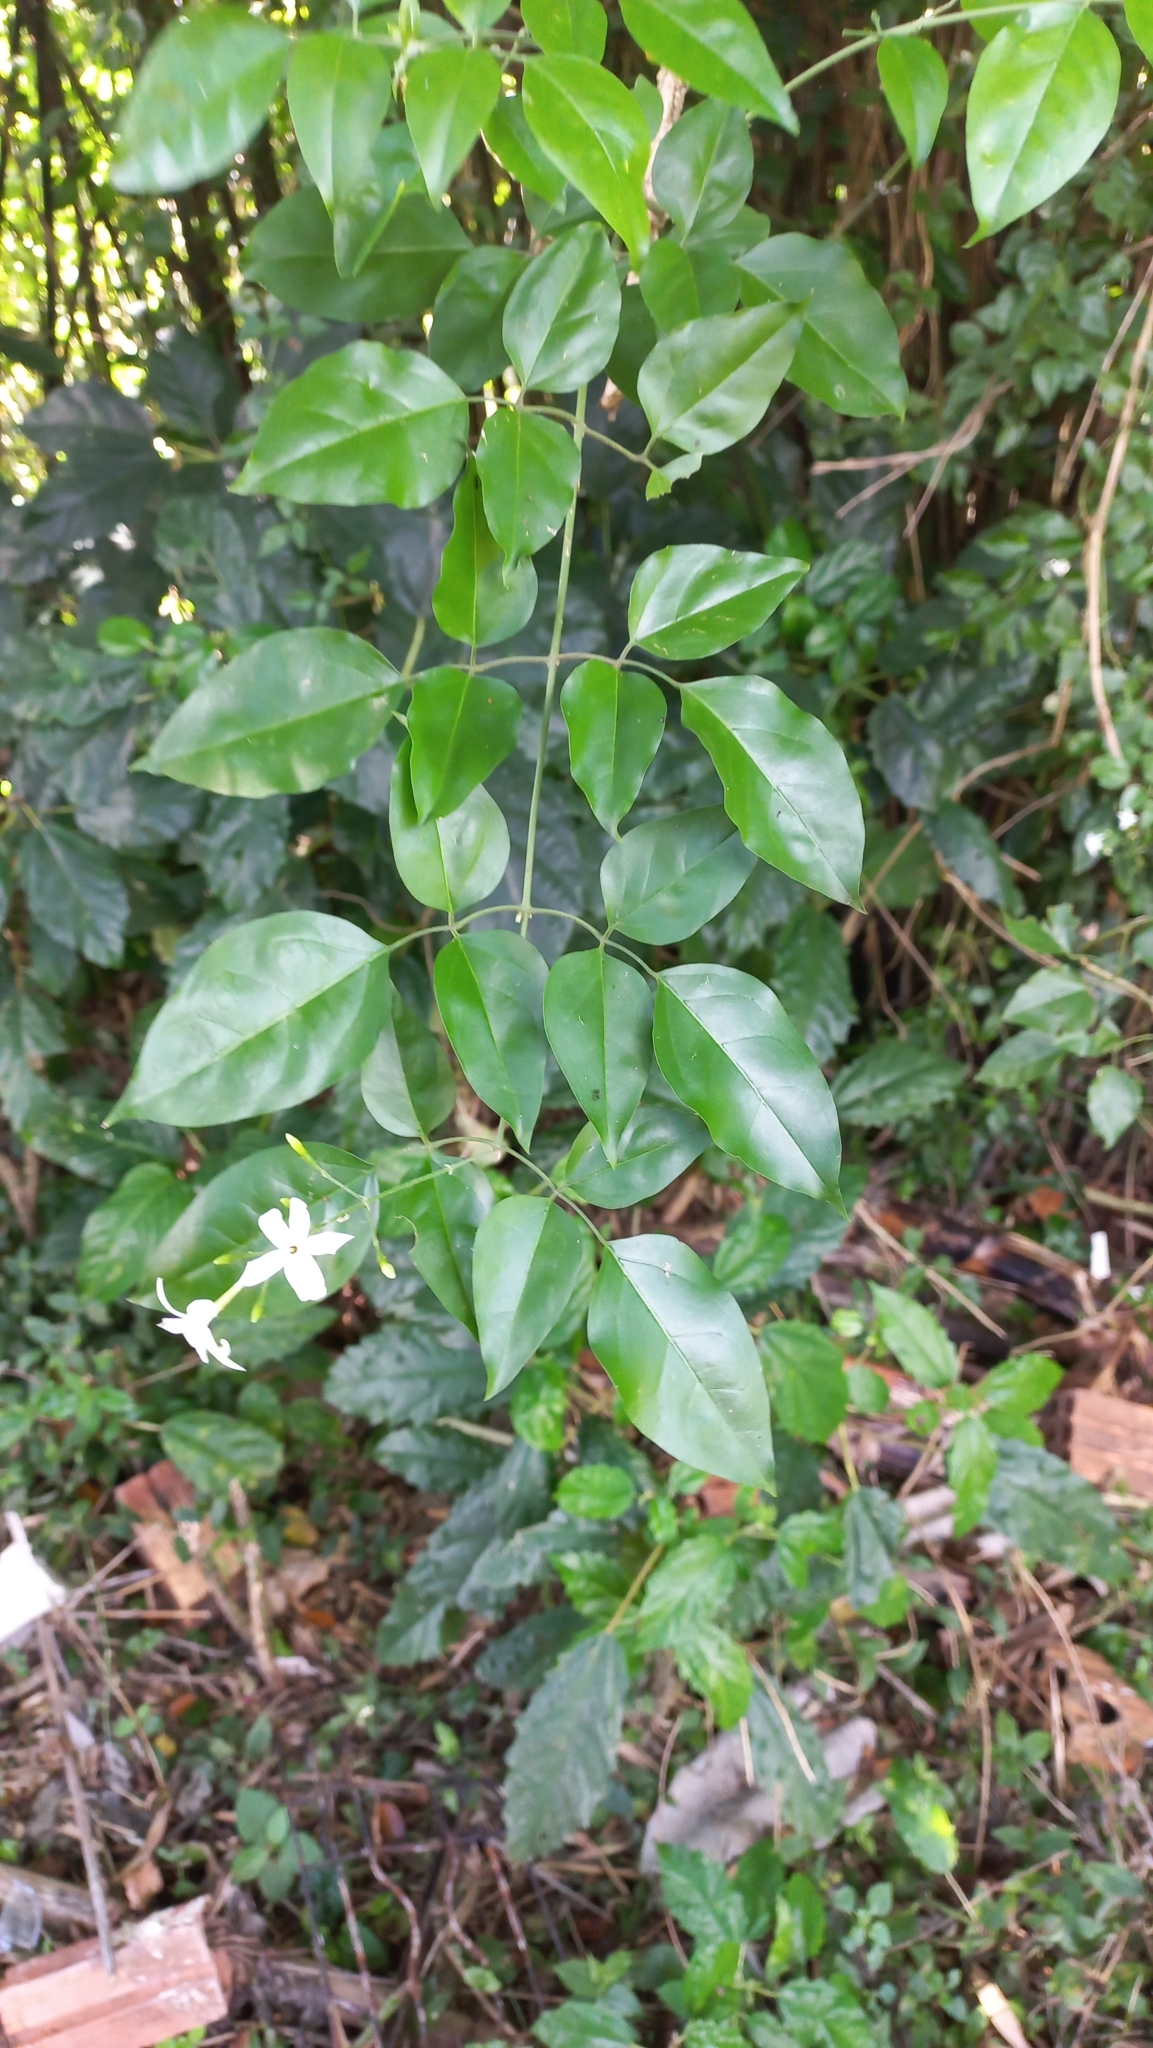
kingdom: Plantae
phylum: Tracheophyta
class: Magnoliopsida
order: Lamiales
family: Oleaceae
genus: Jasminum
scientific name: Jasminum fluminense
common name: Brazilian jasmine
